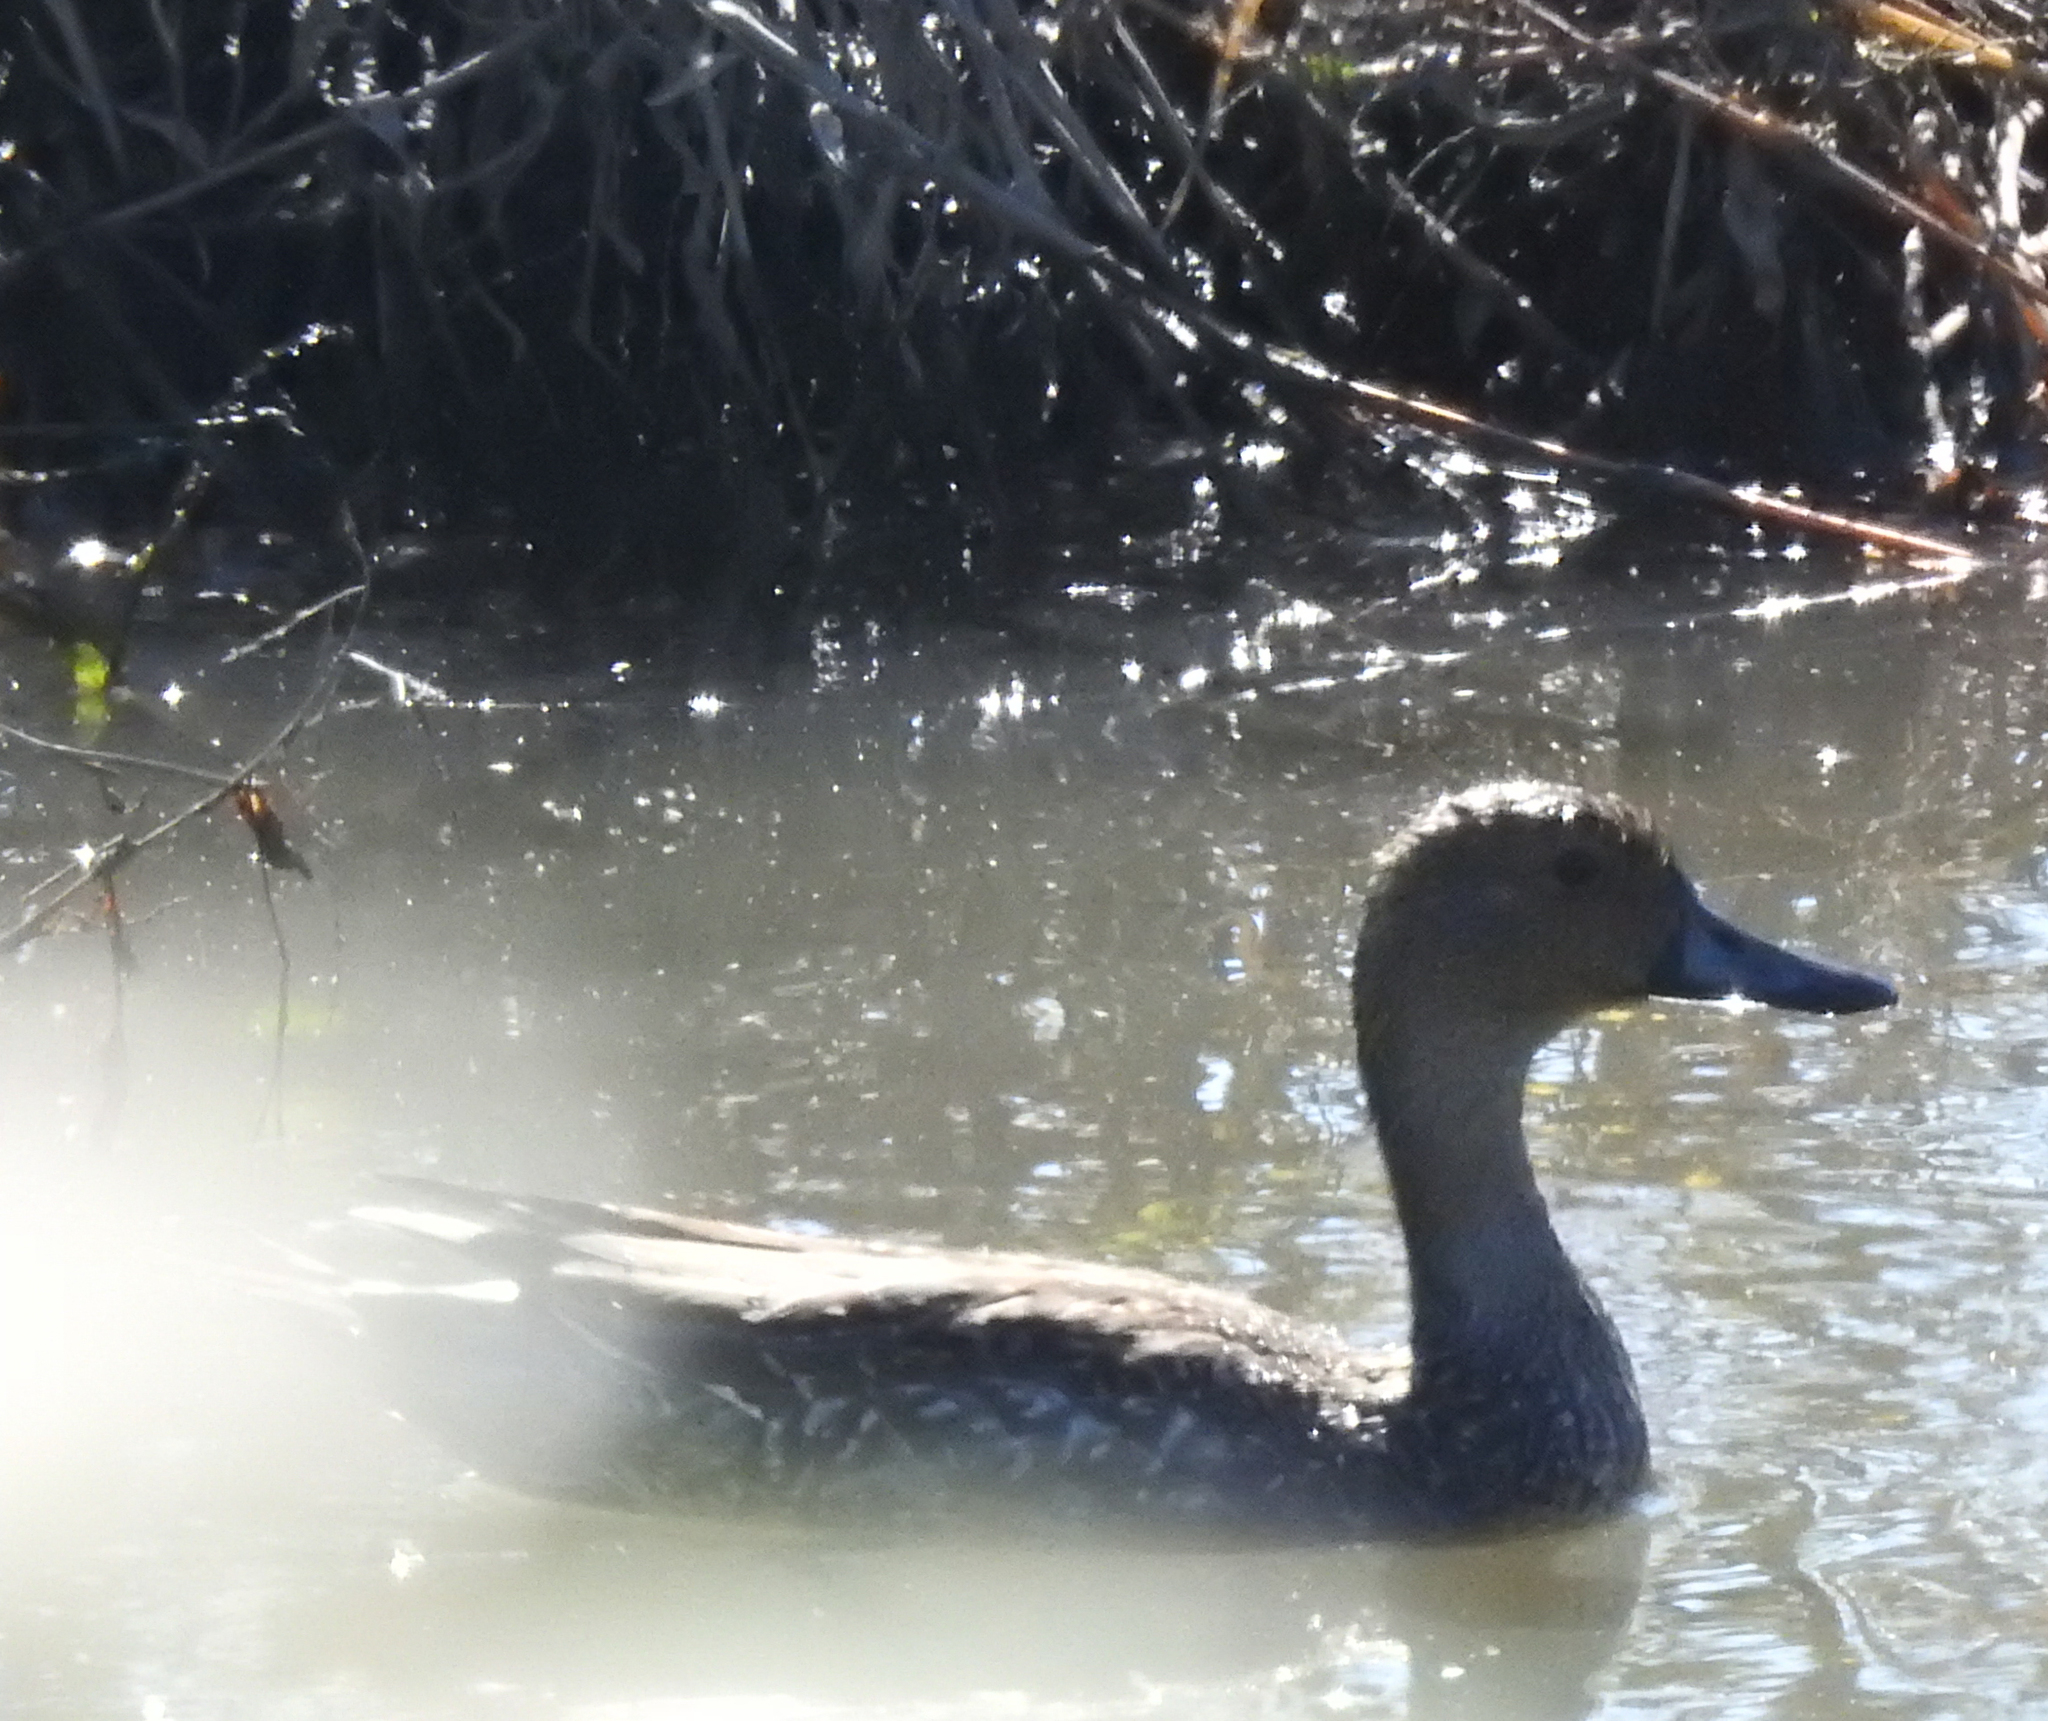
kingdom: Animalia
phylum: Chordata
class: Aves
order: Anseriformes
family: Anatidae
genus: Anas
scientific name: Anas acuta
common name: Northern pintail
